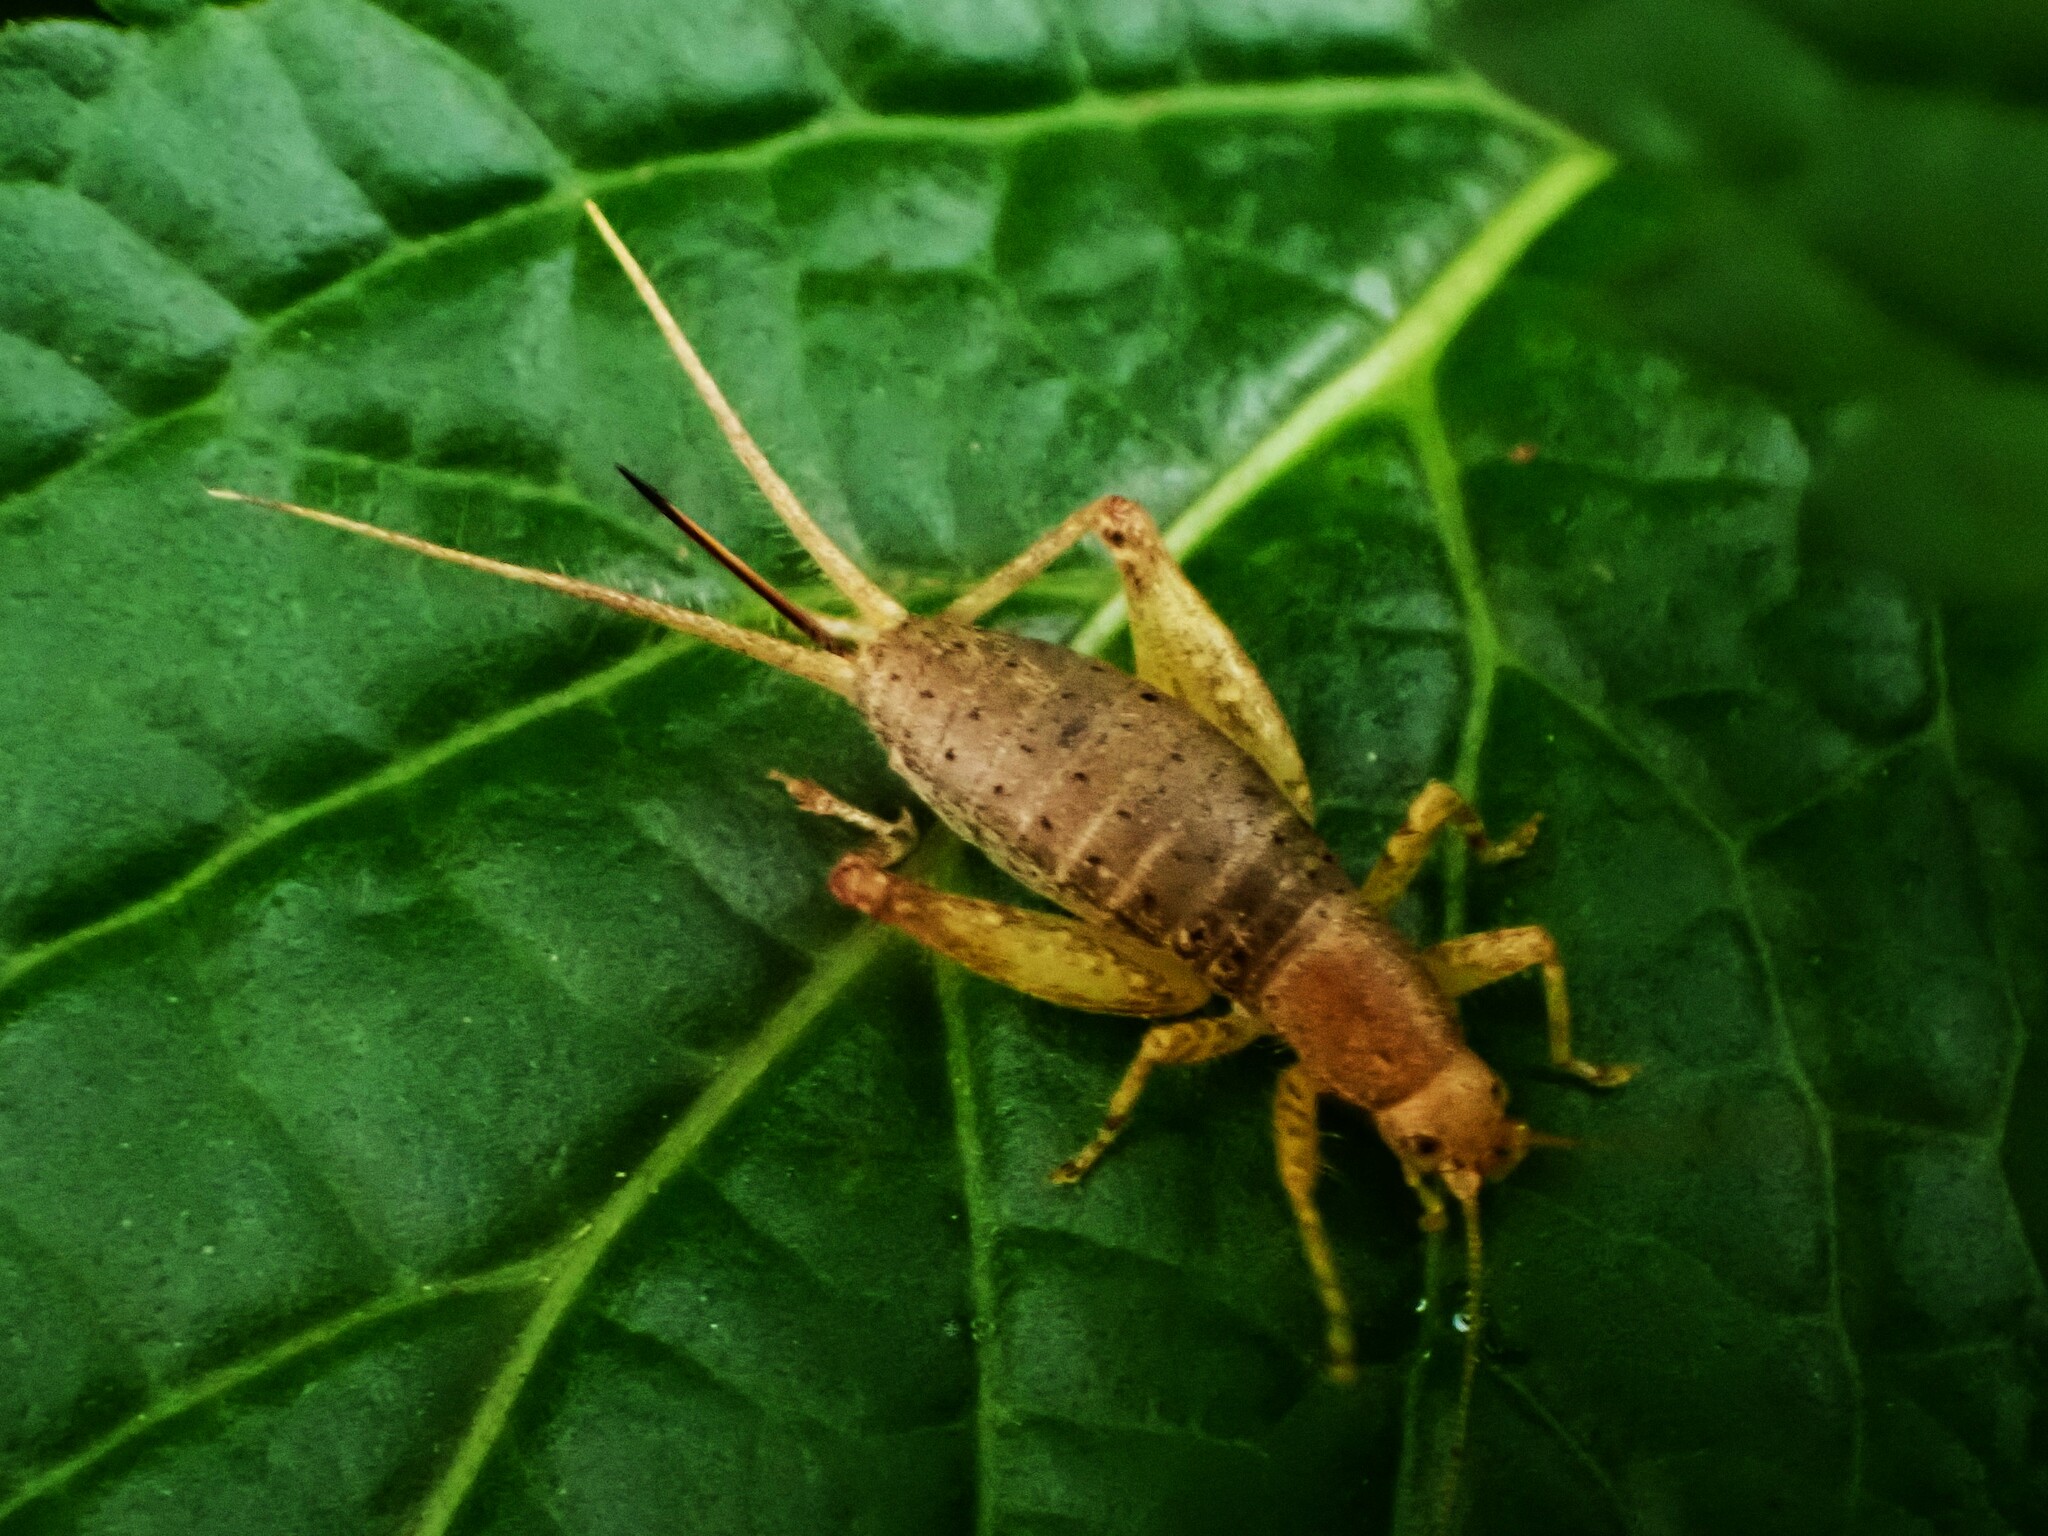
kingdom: Animalia
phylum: Arthropoda
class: Insecta
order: Orthoptera
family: Mogoplistidae
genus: Ornebius
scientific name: Ornebius novarae
